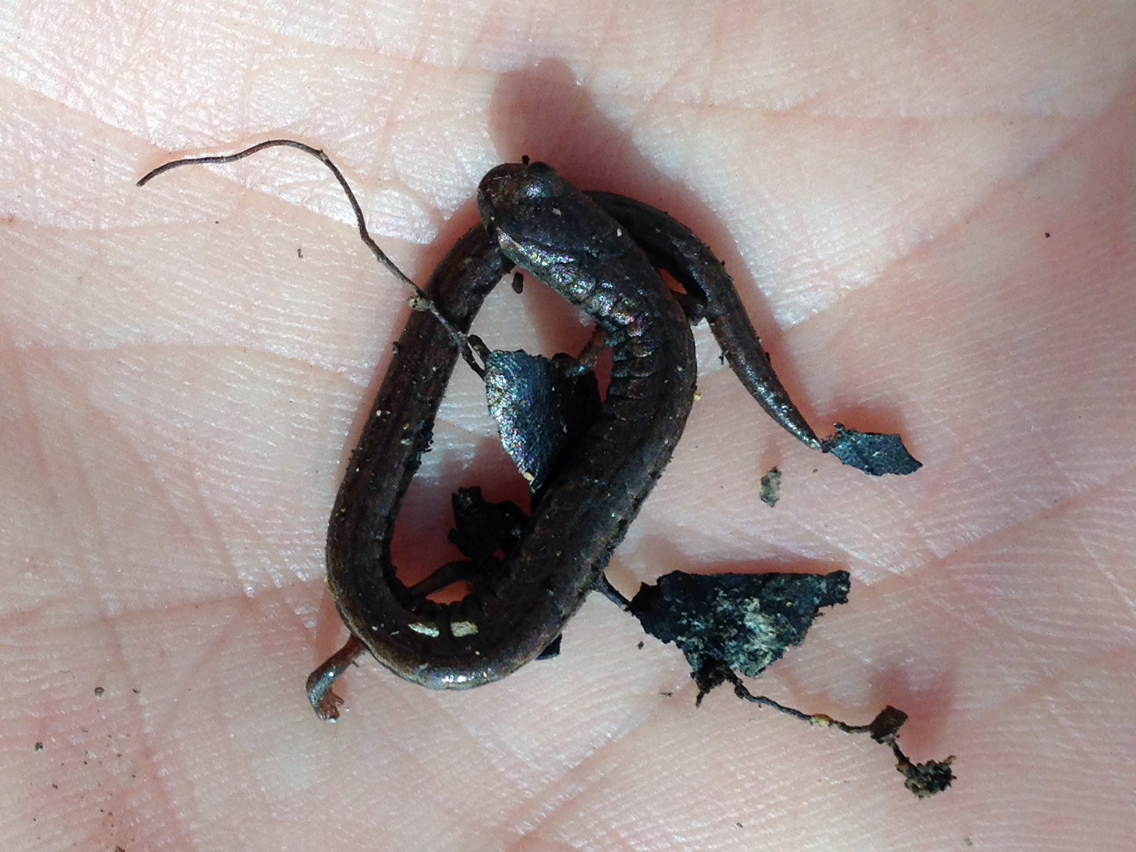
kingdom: Animalia
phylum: Chordata
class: Amphibia
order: Caudata
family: Plethodontidae
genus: Batrachoseps
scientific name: Batrachoseps attenuatus
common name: California slender salamander
